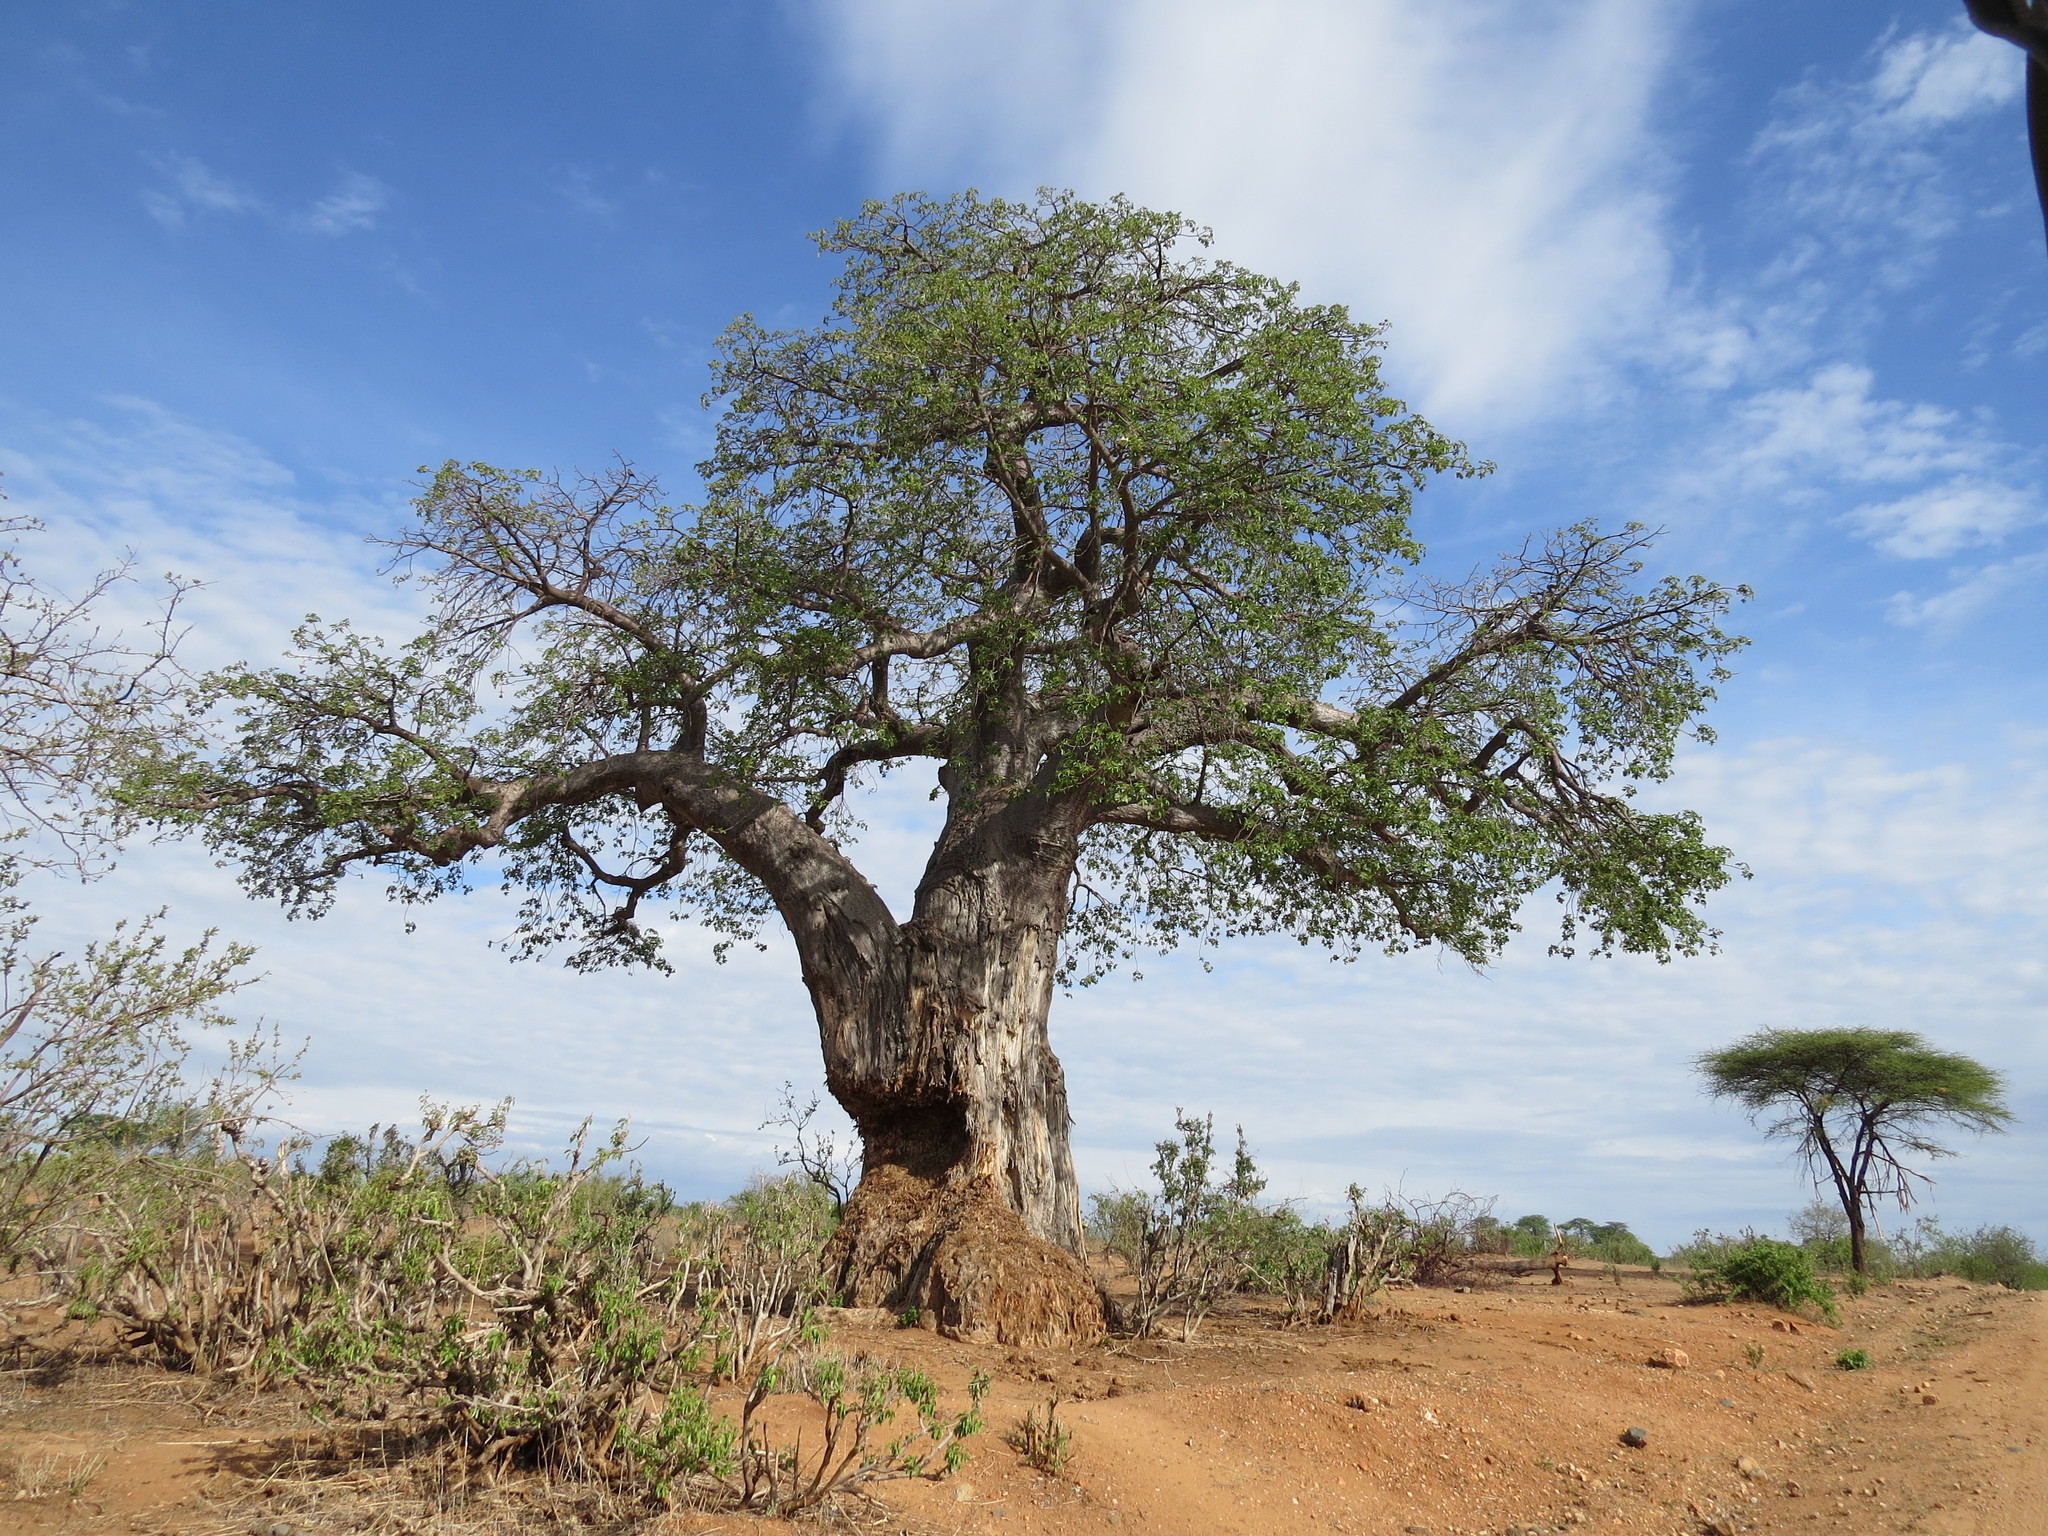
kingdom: Plantae
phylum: Tracheophyta
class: Magnoliopsida
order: Malvales
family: Malvaceae
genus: Adansonia
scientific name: Adansonia digitata
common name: Dead-rat-tree
